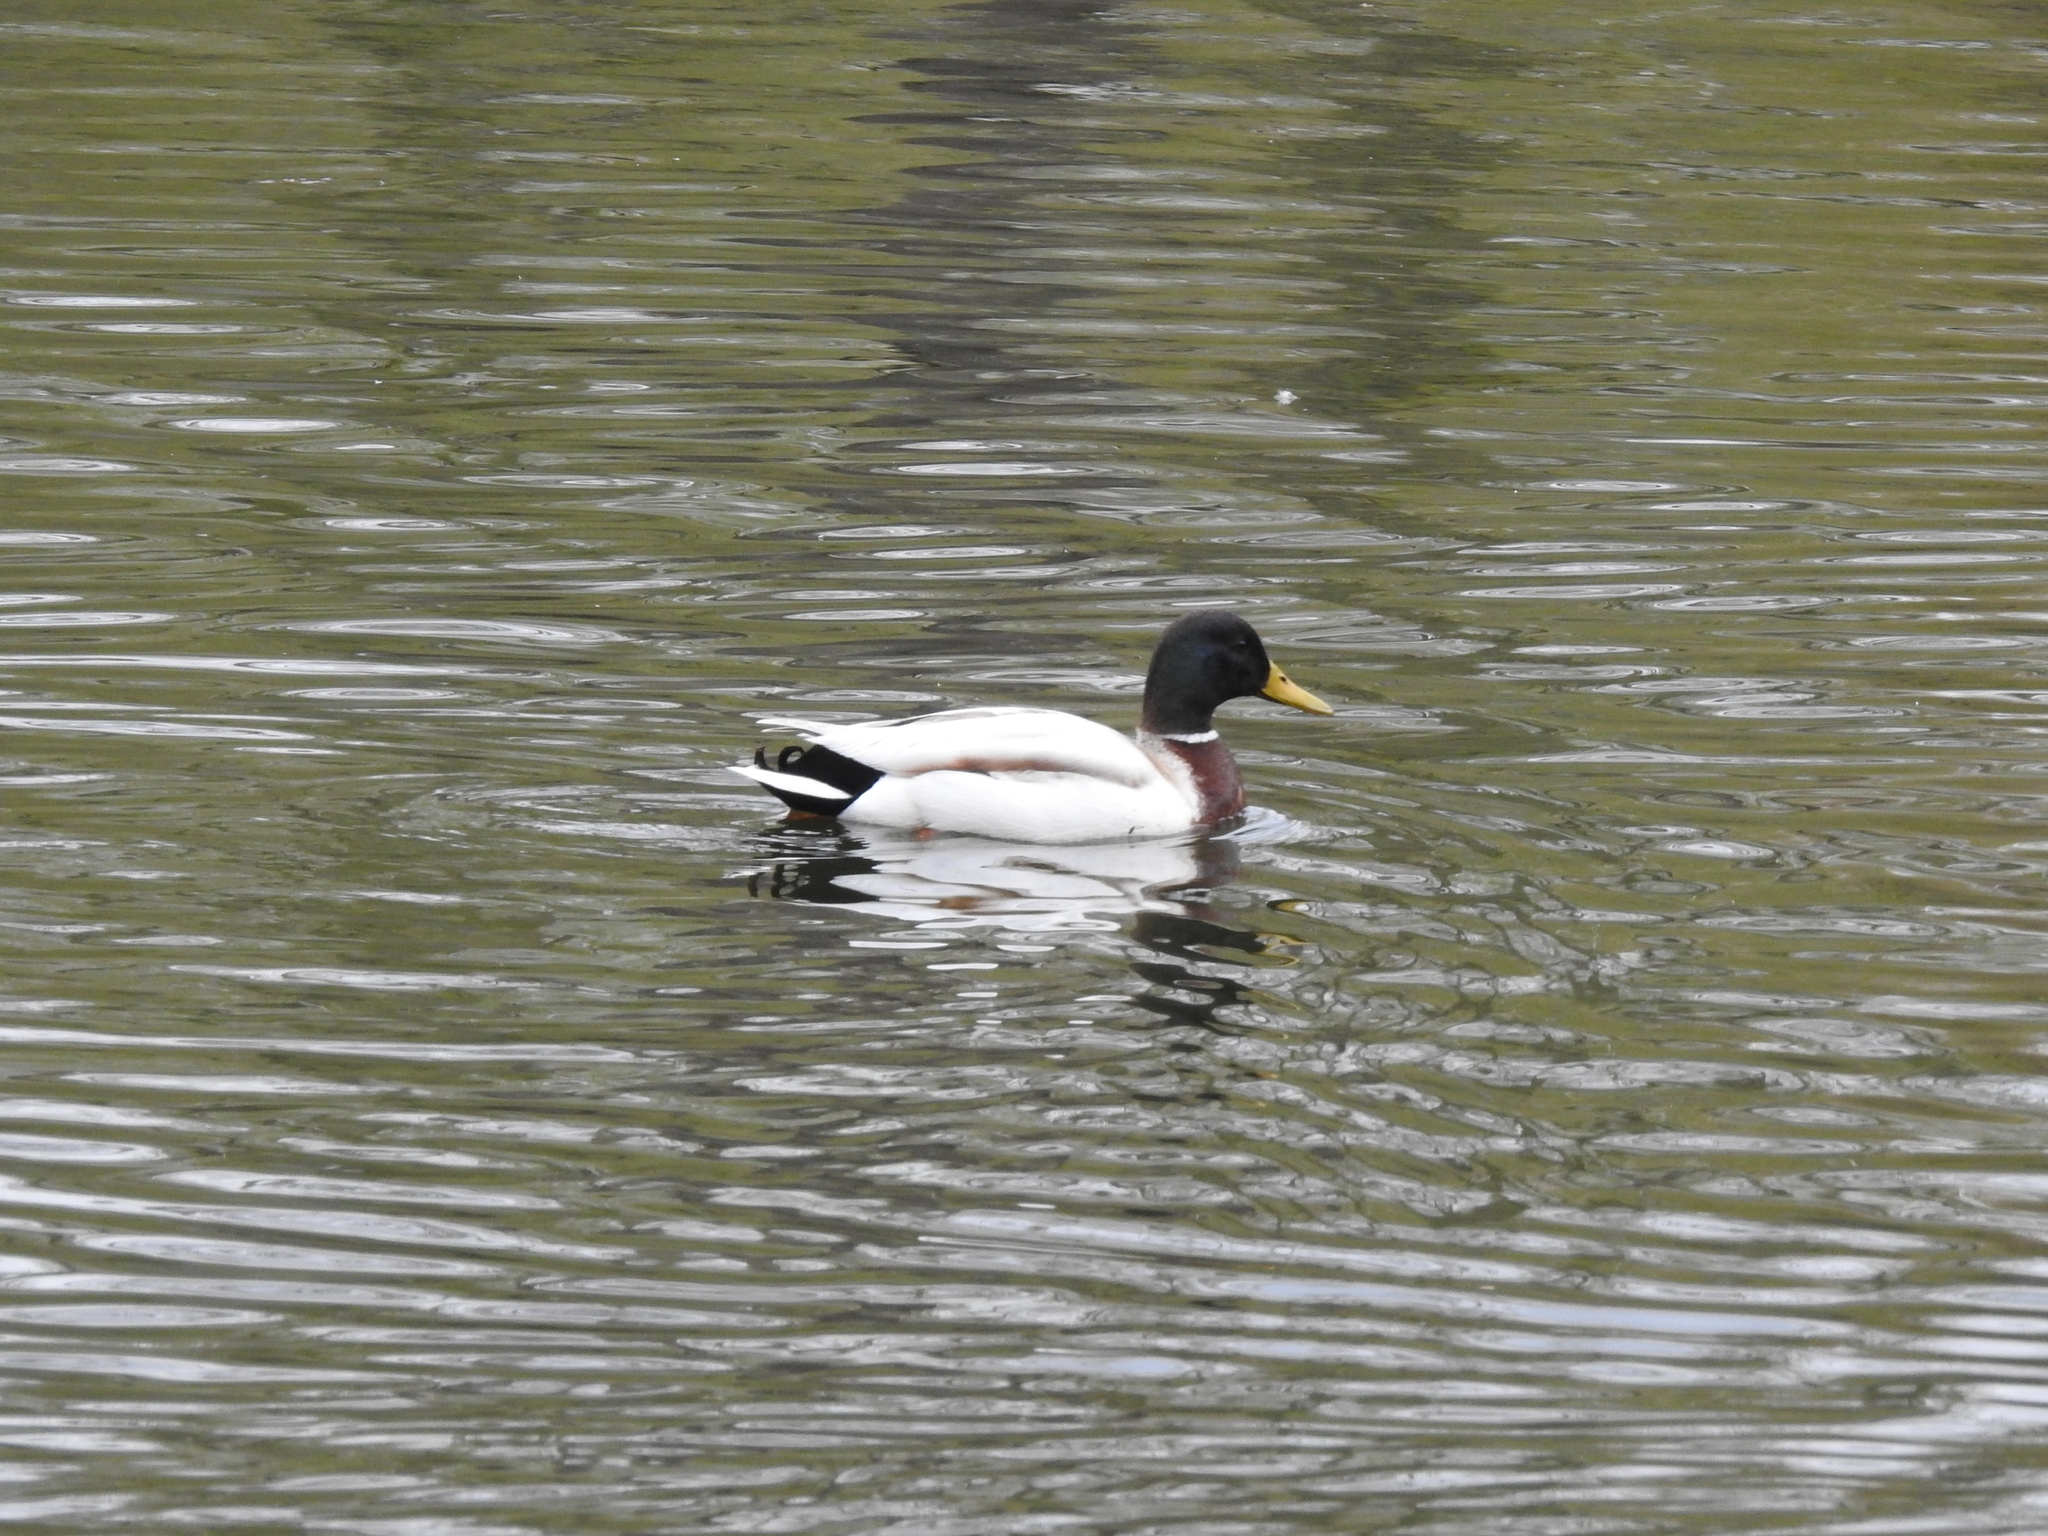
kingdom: Animalia
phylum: Chordata
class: Aves
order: Anseriformes
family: Anatidae
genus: Anas
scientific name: Anas platyrhynchos
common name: Mallard
